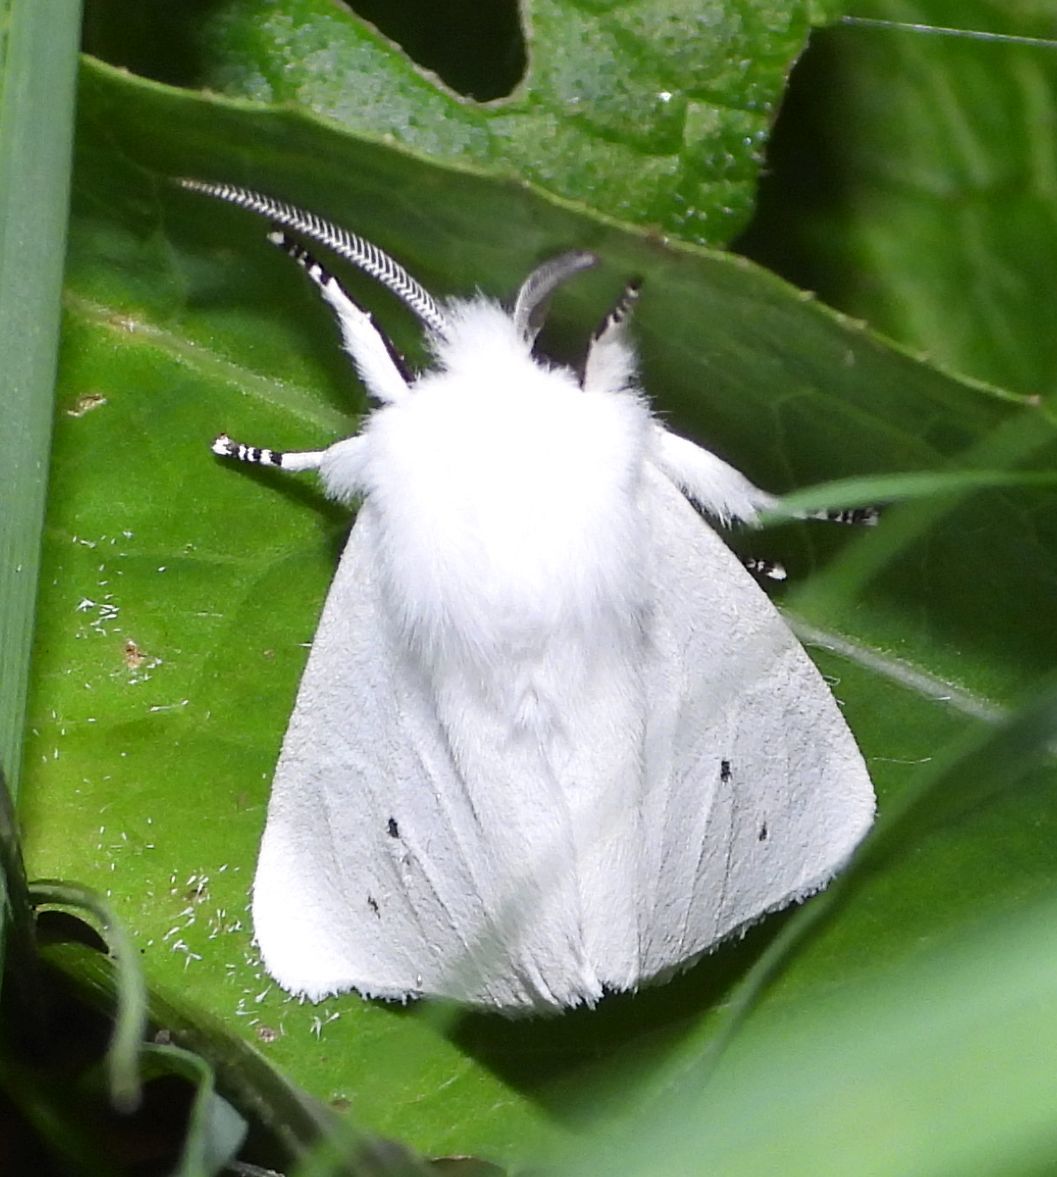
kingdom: Animalia
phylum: Arthropoda
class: Insecta
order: Lepidoptera
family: Erebidae
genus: Spilosoma
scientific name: Spilosoma virginica
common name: Virginia tiger moth
